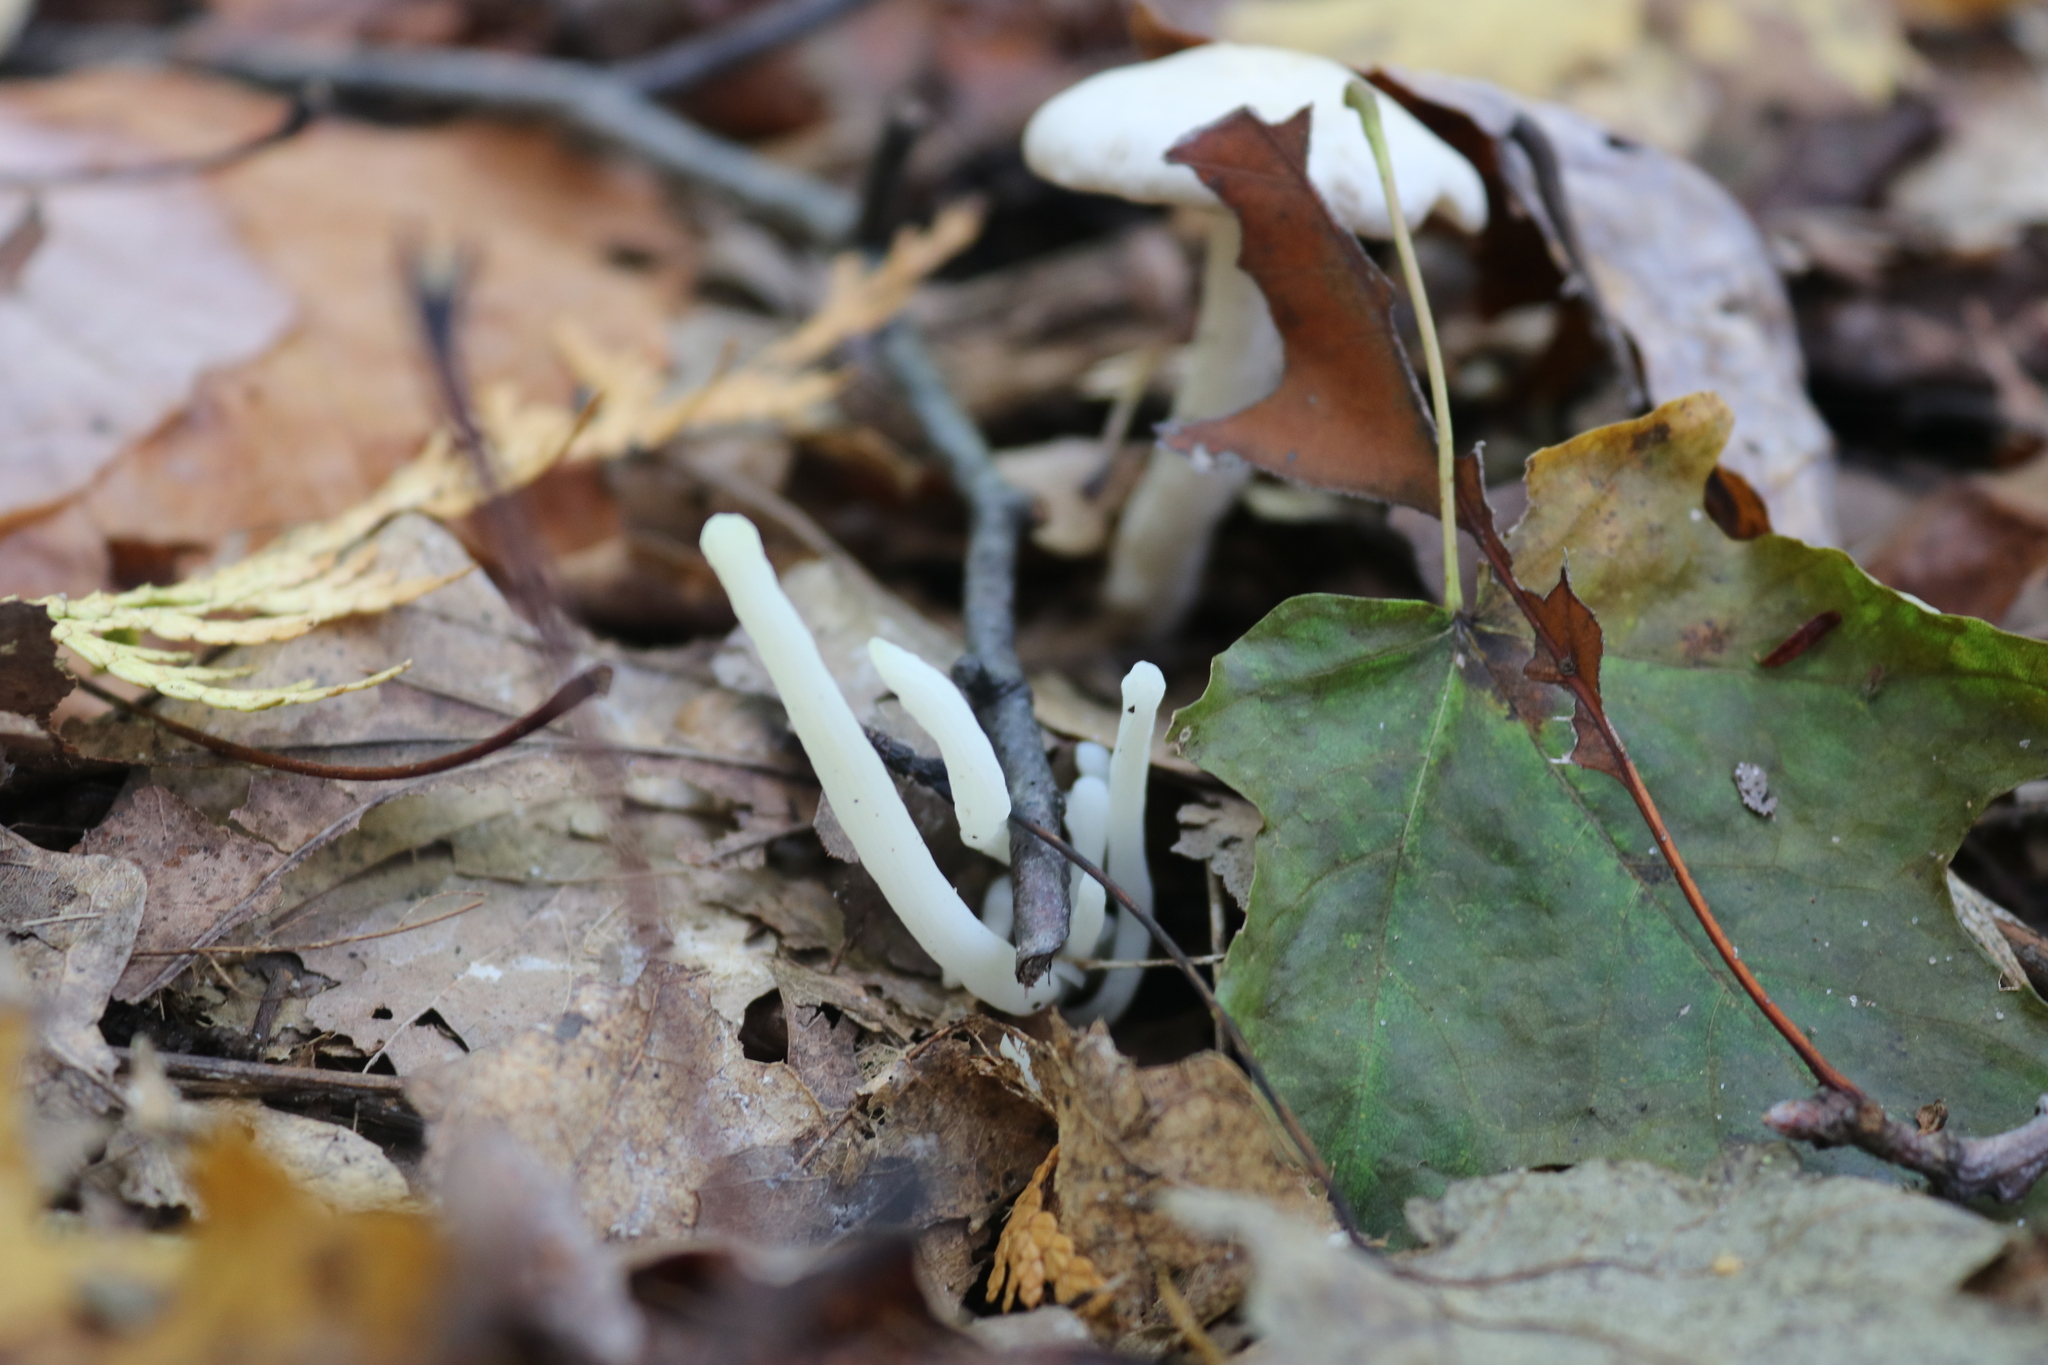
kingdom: Fungi
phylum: Basidiomycota
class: Agaricomycetes
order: Agaricales
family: Clavariaceae
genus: Clavaria
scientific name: Clavaria fragilis
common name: White spindles
